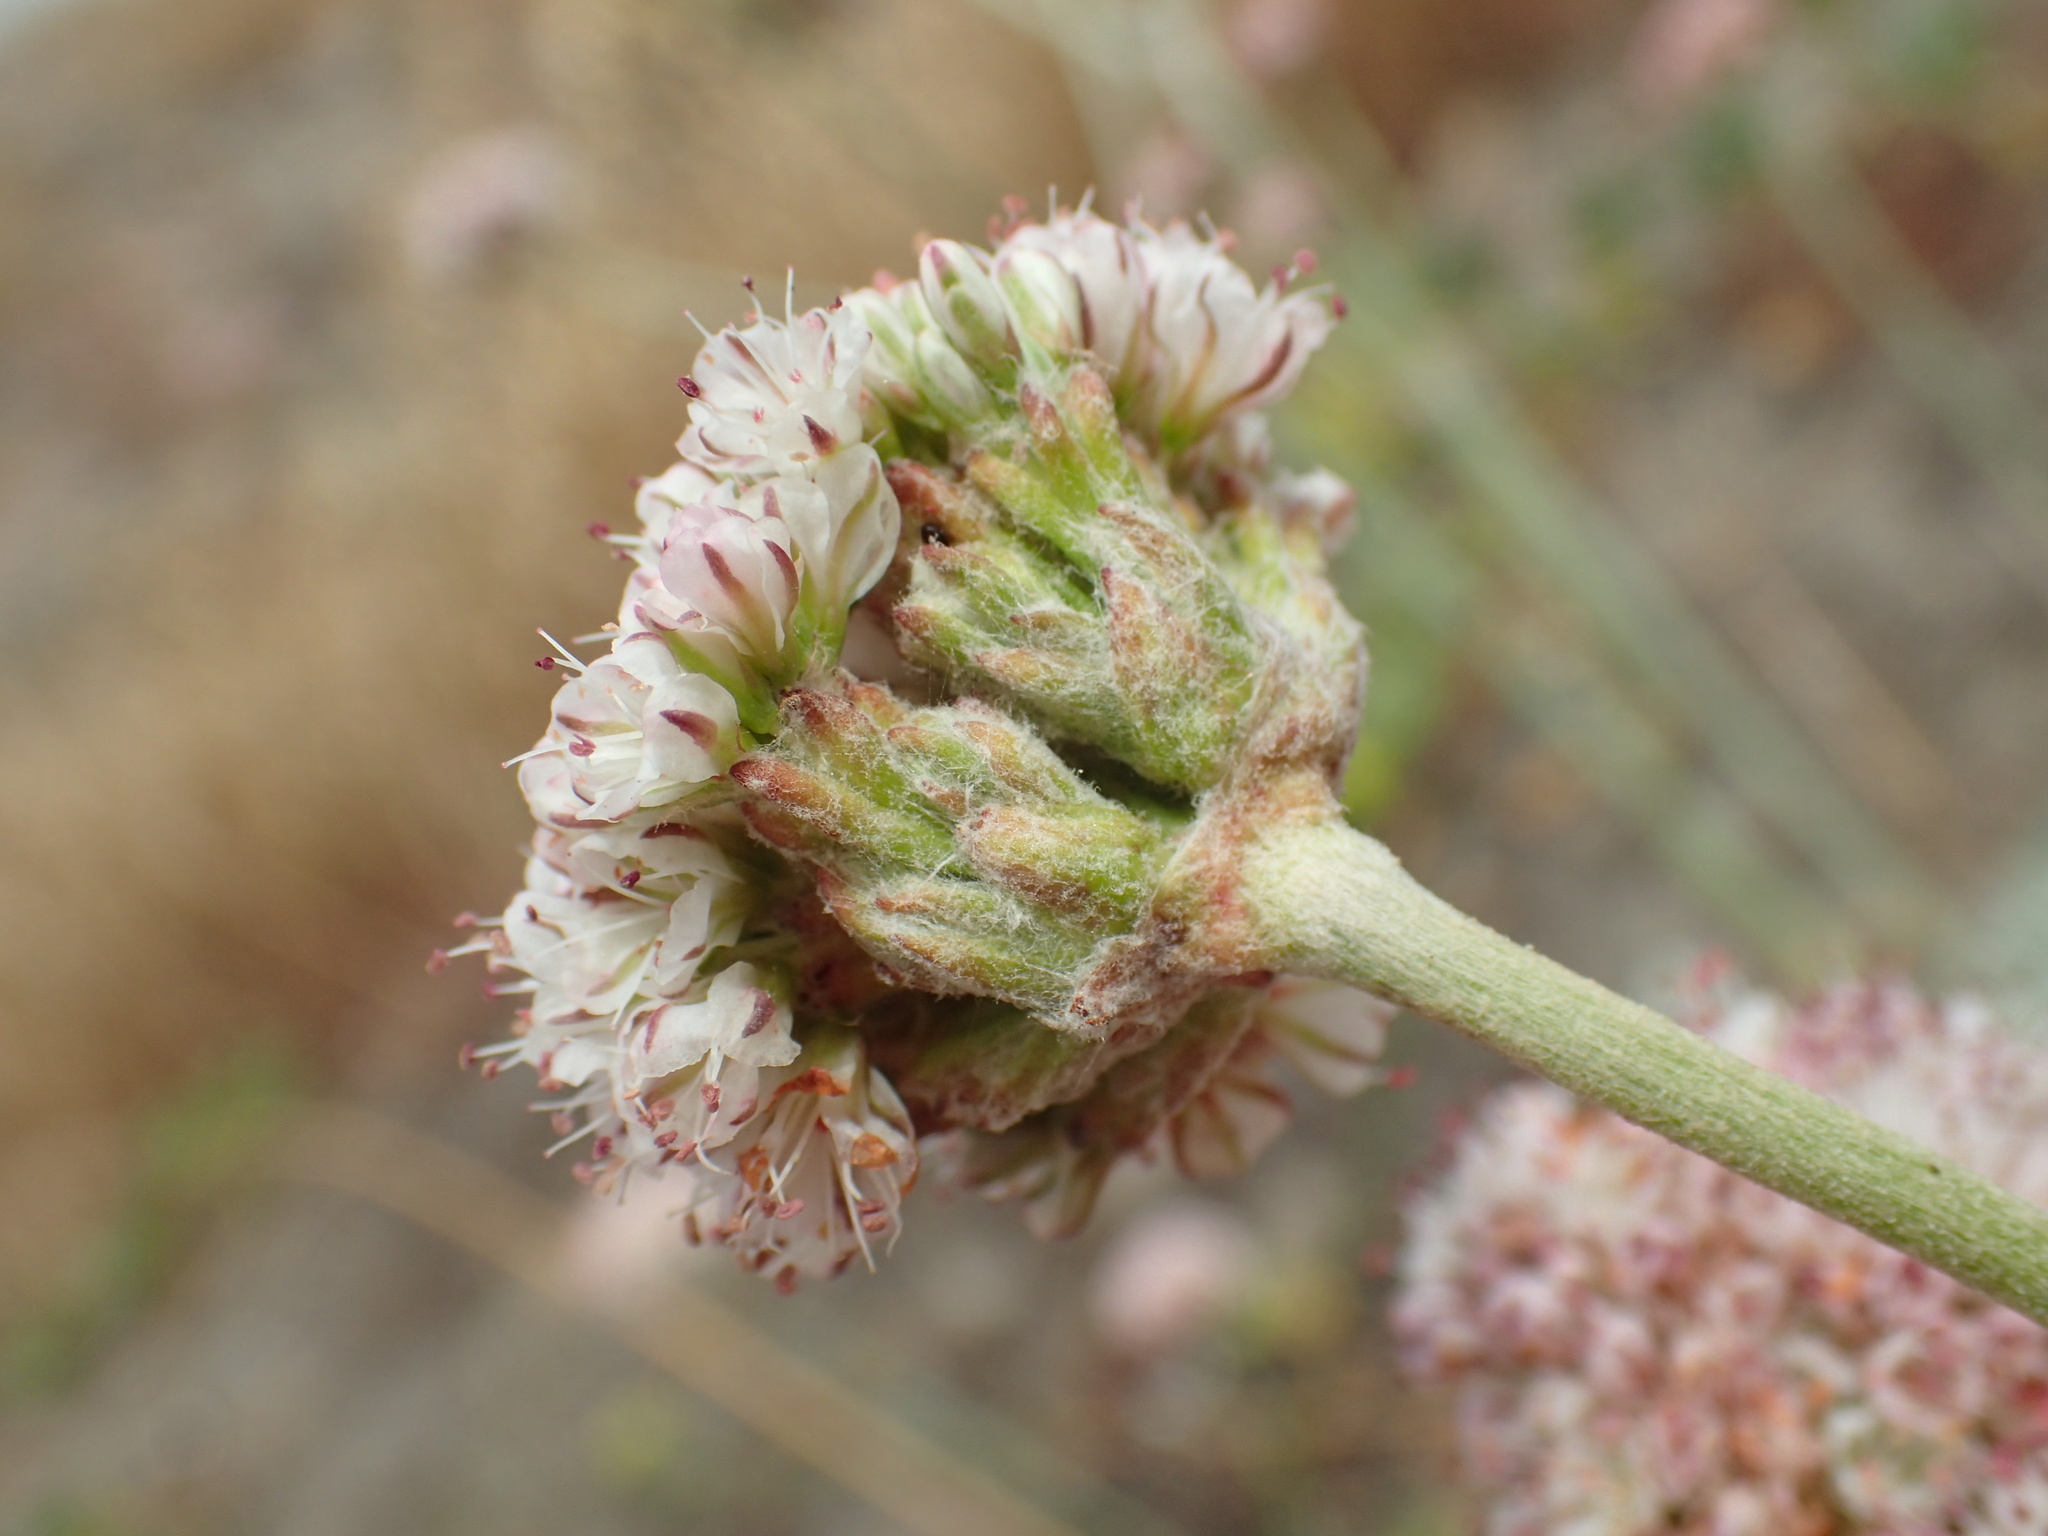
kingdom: Plantae
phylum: Tracheophyta
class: Magnoliopsida
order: Caryophyllales
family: Polygonaceae
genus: Eriogonum
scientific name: Eriogonum latifolium
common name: Seaside wild buckwheat
